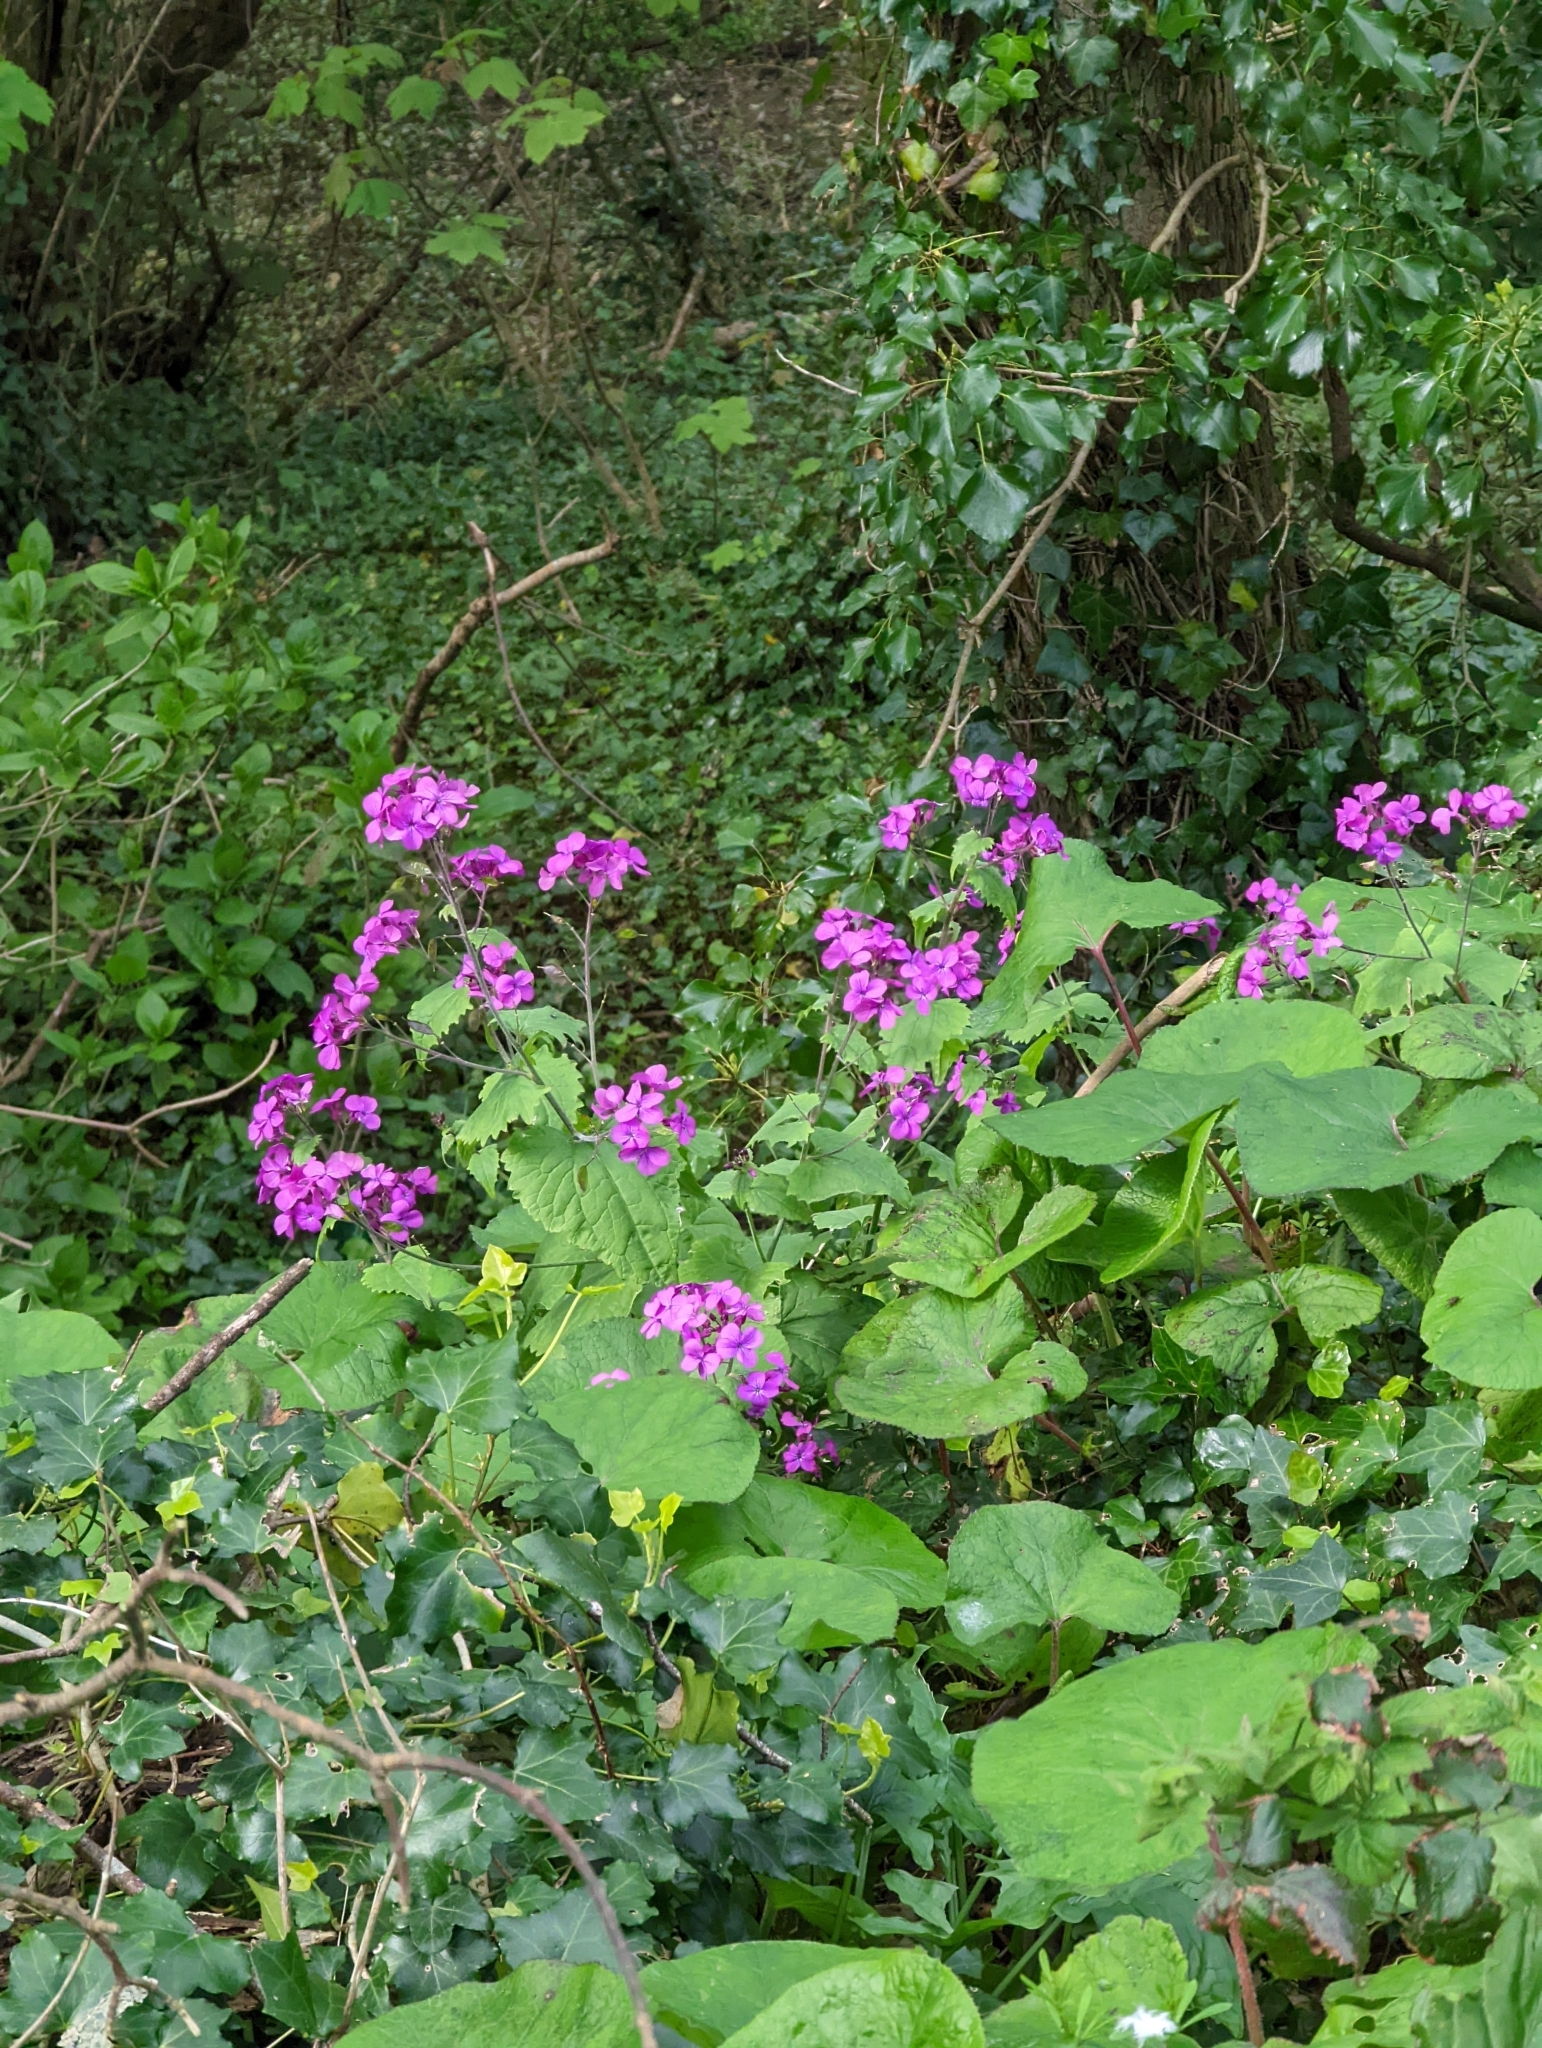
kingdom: Plantae
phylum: Tracheophyta
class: Magnoliopsida
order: Brassicales
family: Brassicaceae
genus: Lunaria
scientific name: Lunaria annua
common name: Honesty
